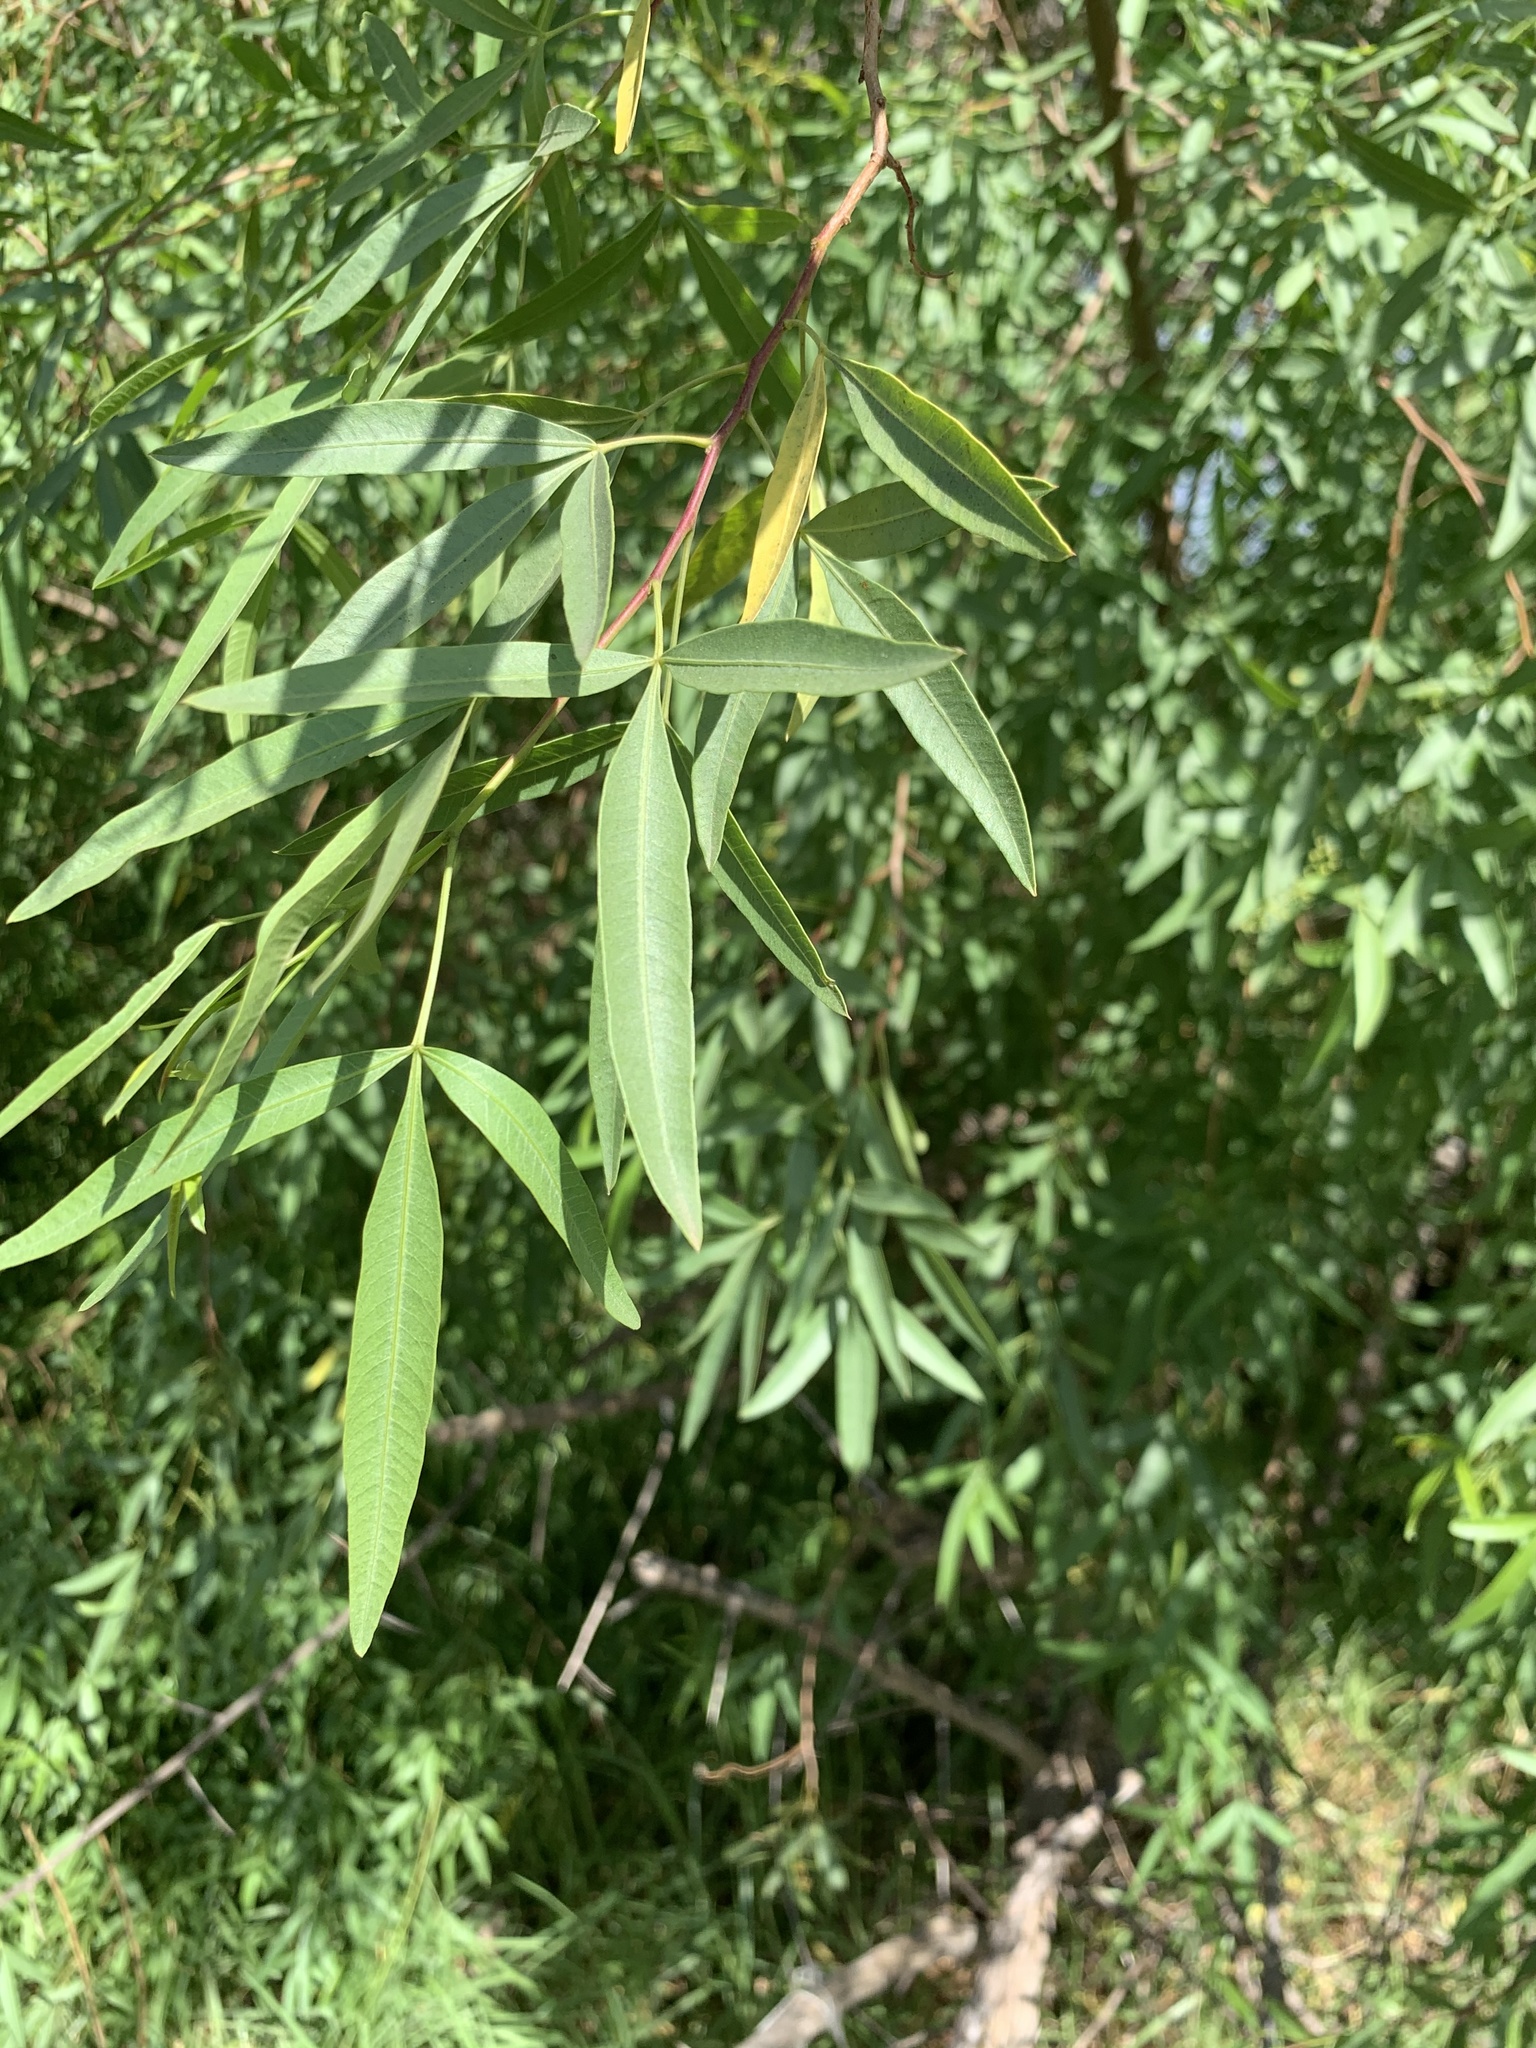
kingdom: Plantae
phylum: Tracheophyta
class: Magnoliopsida
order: Sapindales
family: Anacardiaceae
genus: Searsia
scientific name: Searsia pendulina
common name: White karee
